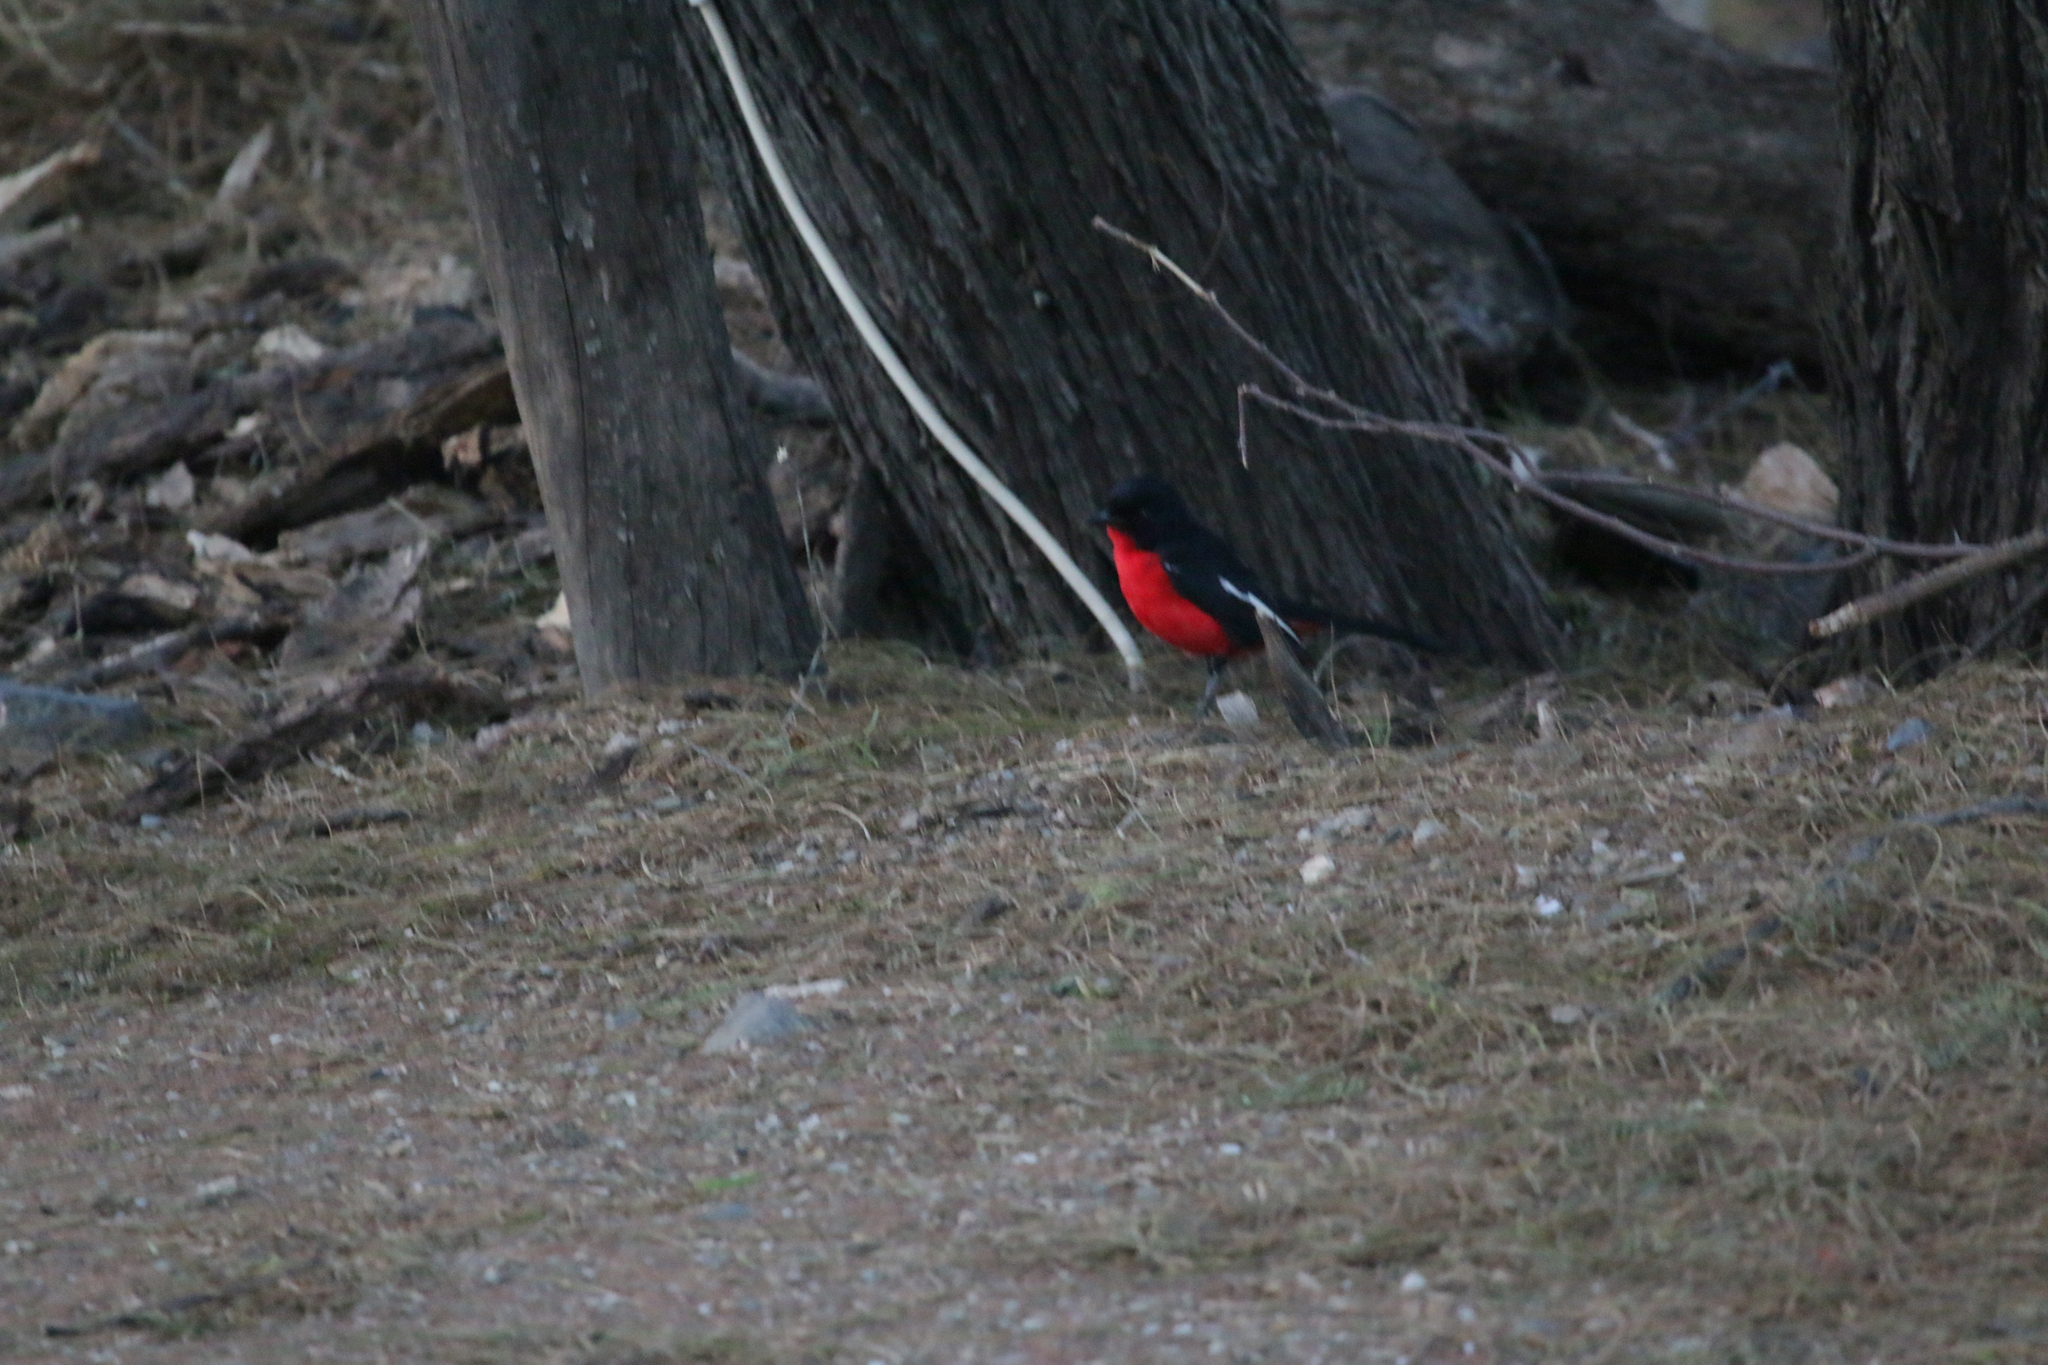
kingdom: Animalia
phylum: Chordata
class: Aves
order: Passeriformes
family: Malaconotidae
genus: Laniarius
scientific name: Laniarius atrococcineus
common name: Crimson-breasted shrike
